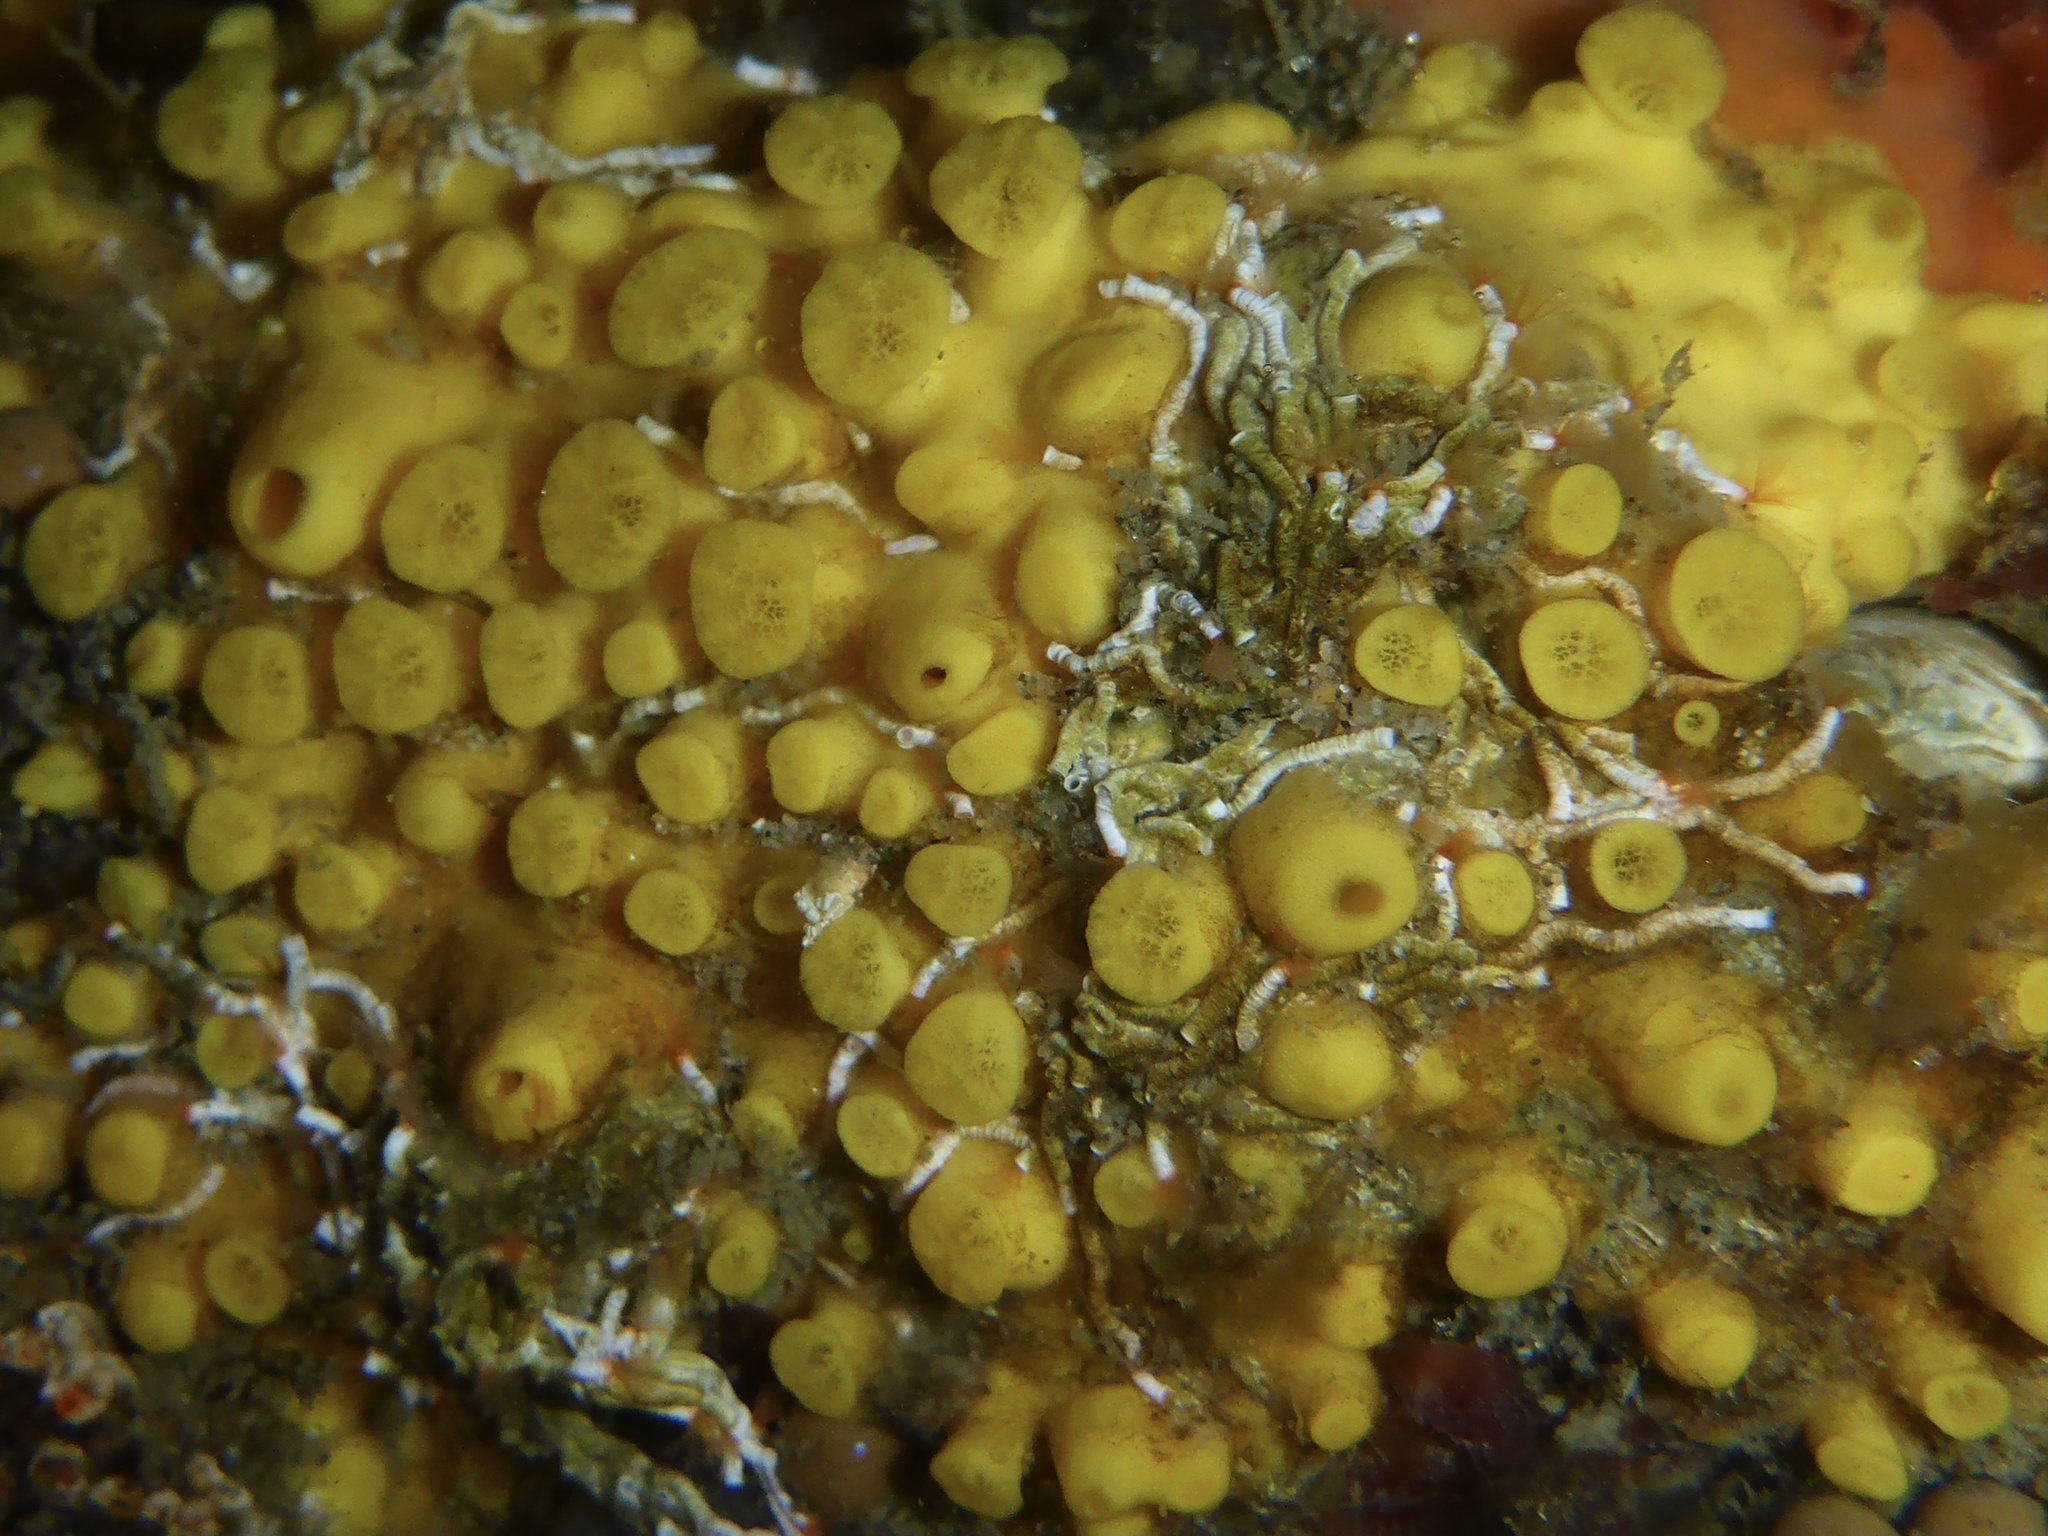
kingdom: Animalia
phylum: Porifera
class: Demospongiae
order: Clionaida
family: Clionaidae
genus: Cliona
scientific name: Cliona californiana
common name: California boring horny sponge
